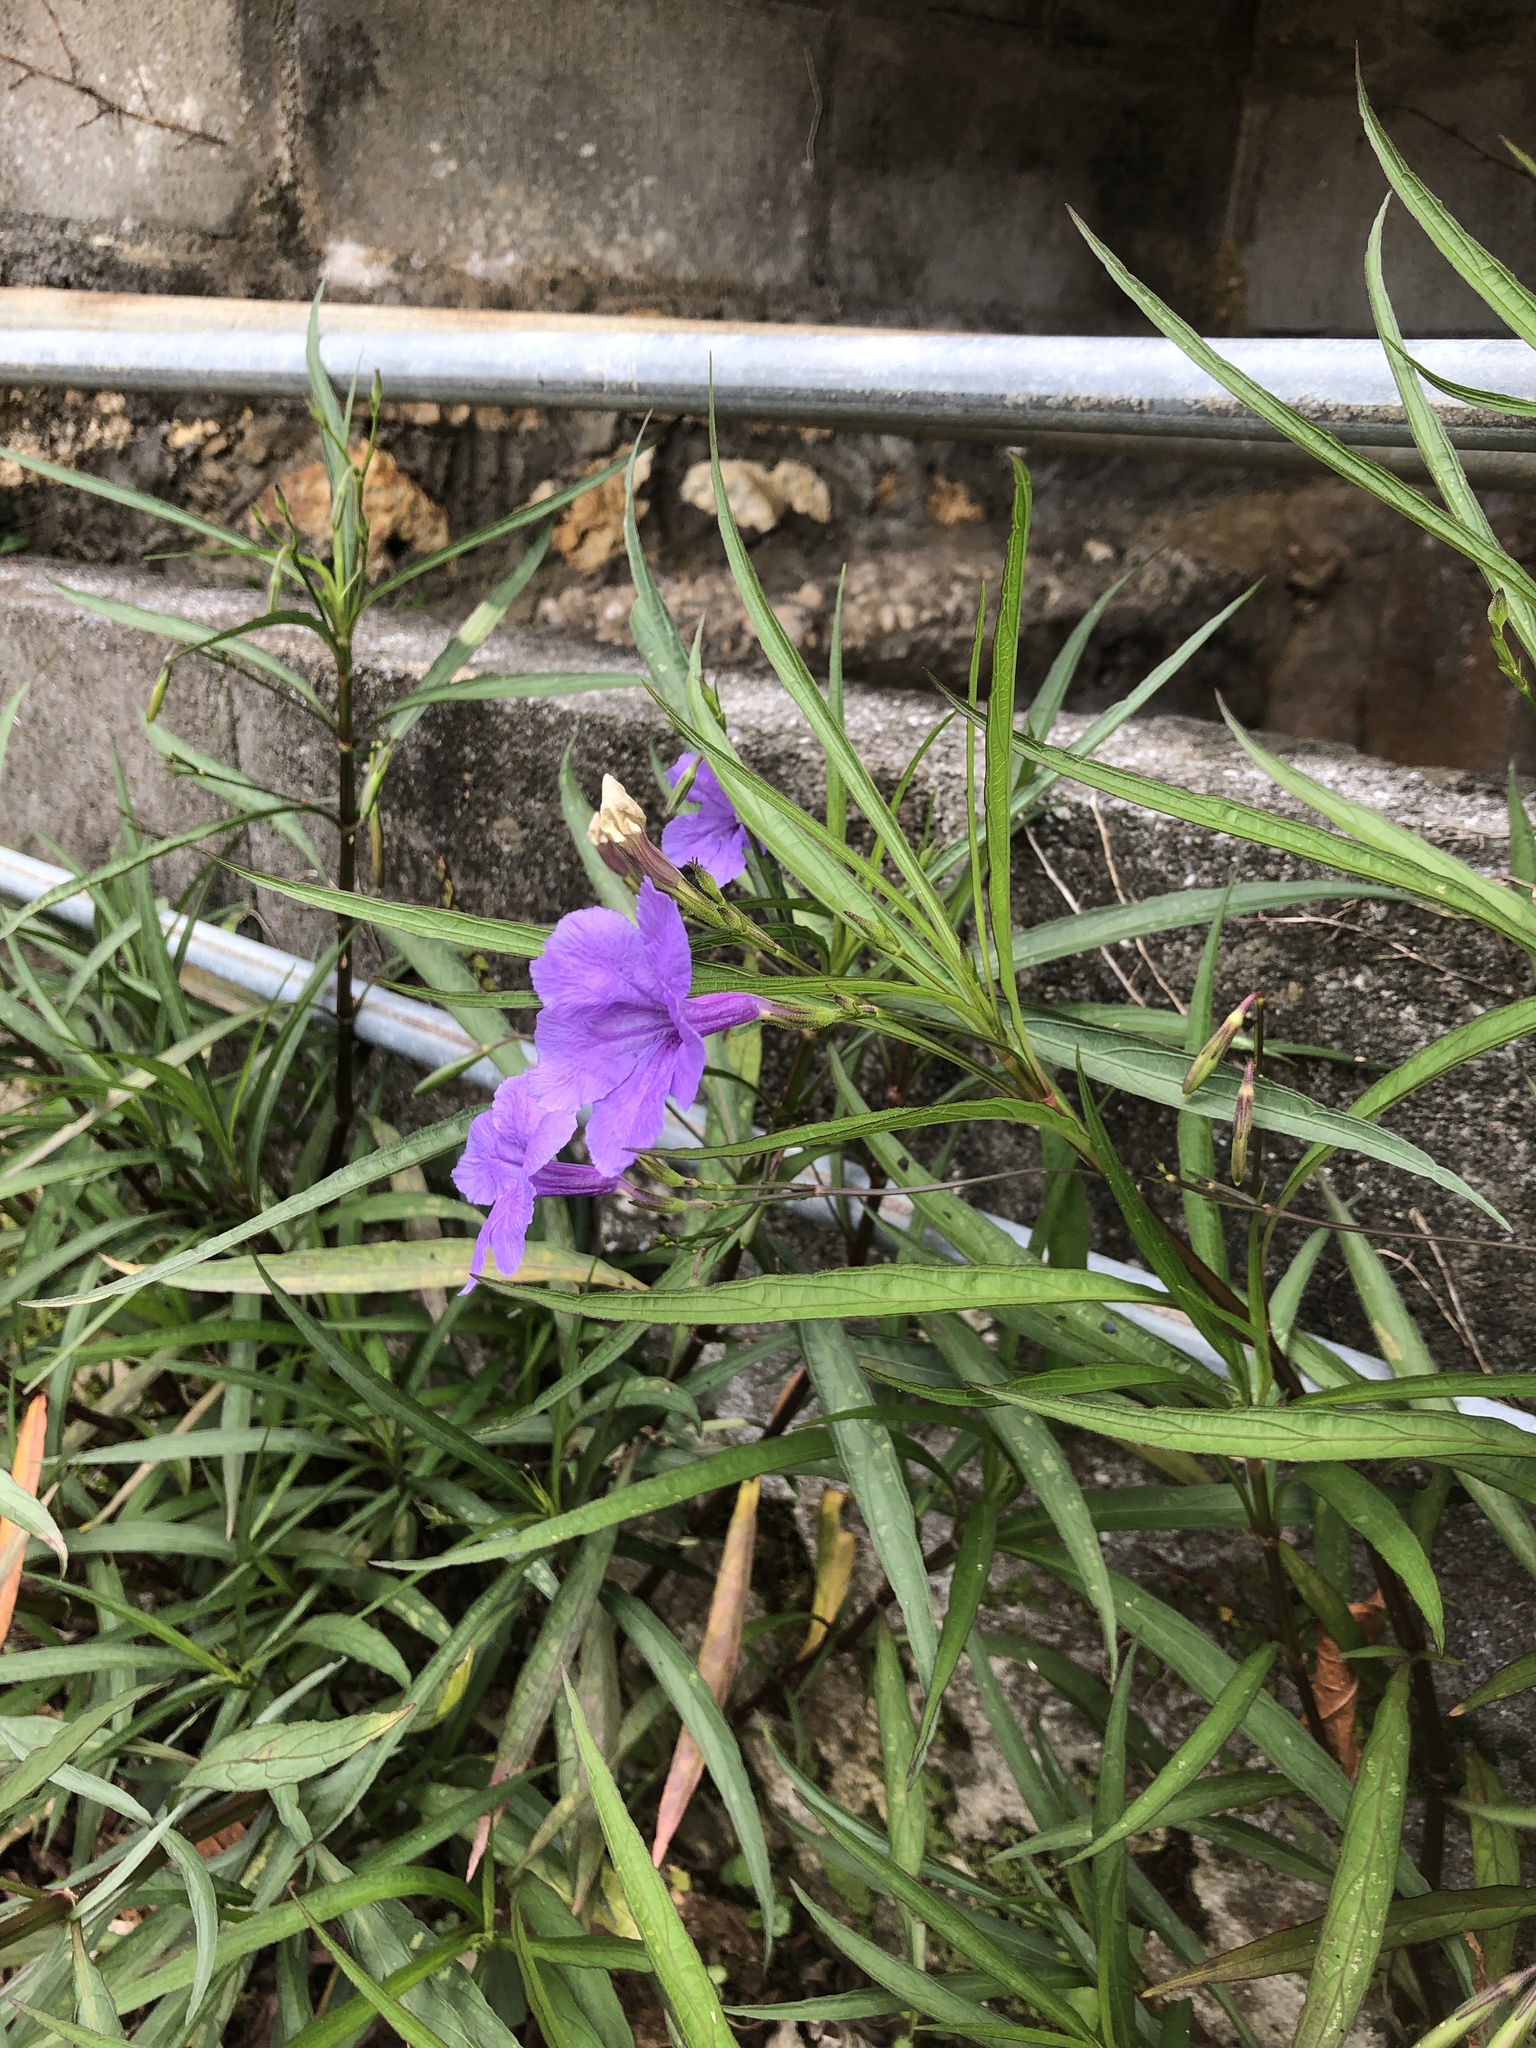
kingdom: Plantae
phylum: Tracheophyta
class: Magnoliopsida
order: Lamiales
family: Acanthaceae
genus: Ruellia
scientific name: Ruellia simplex
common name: Softseed wild petunia
